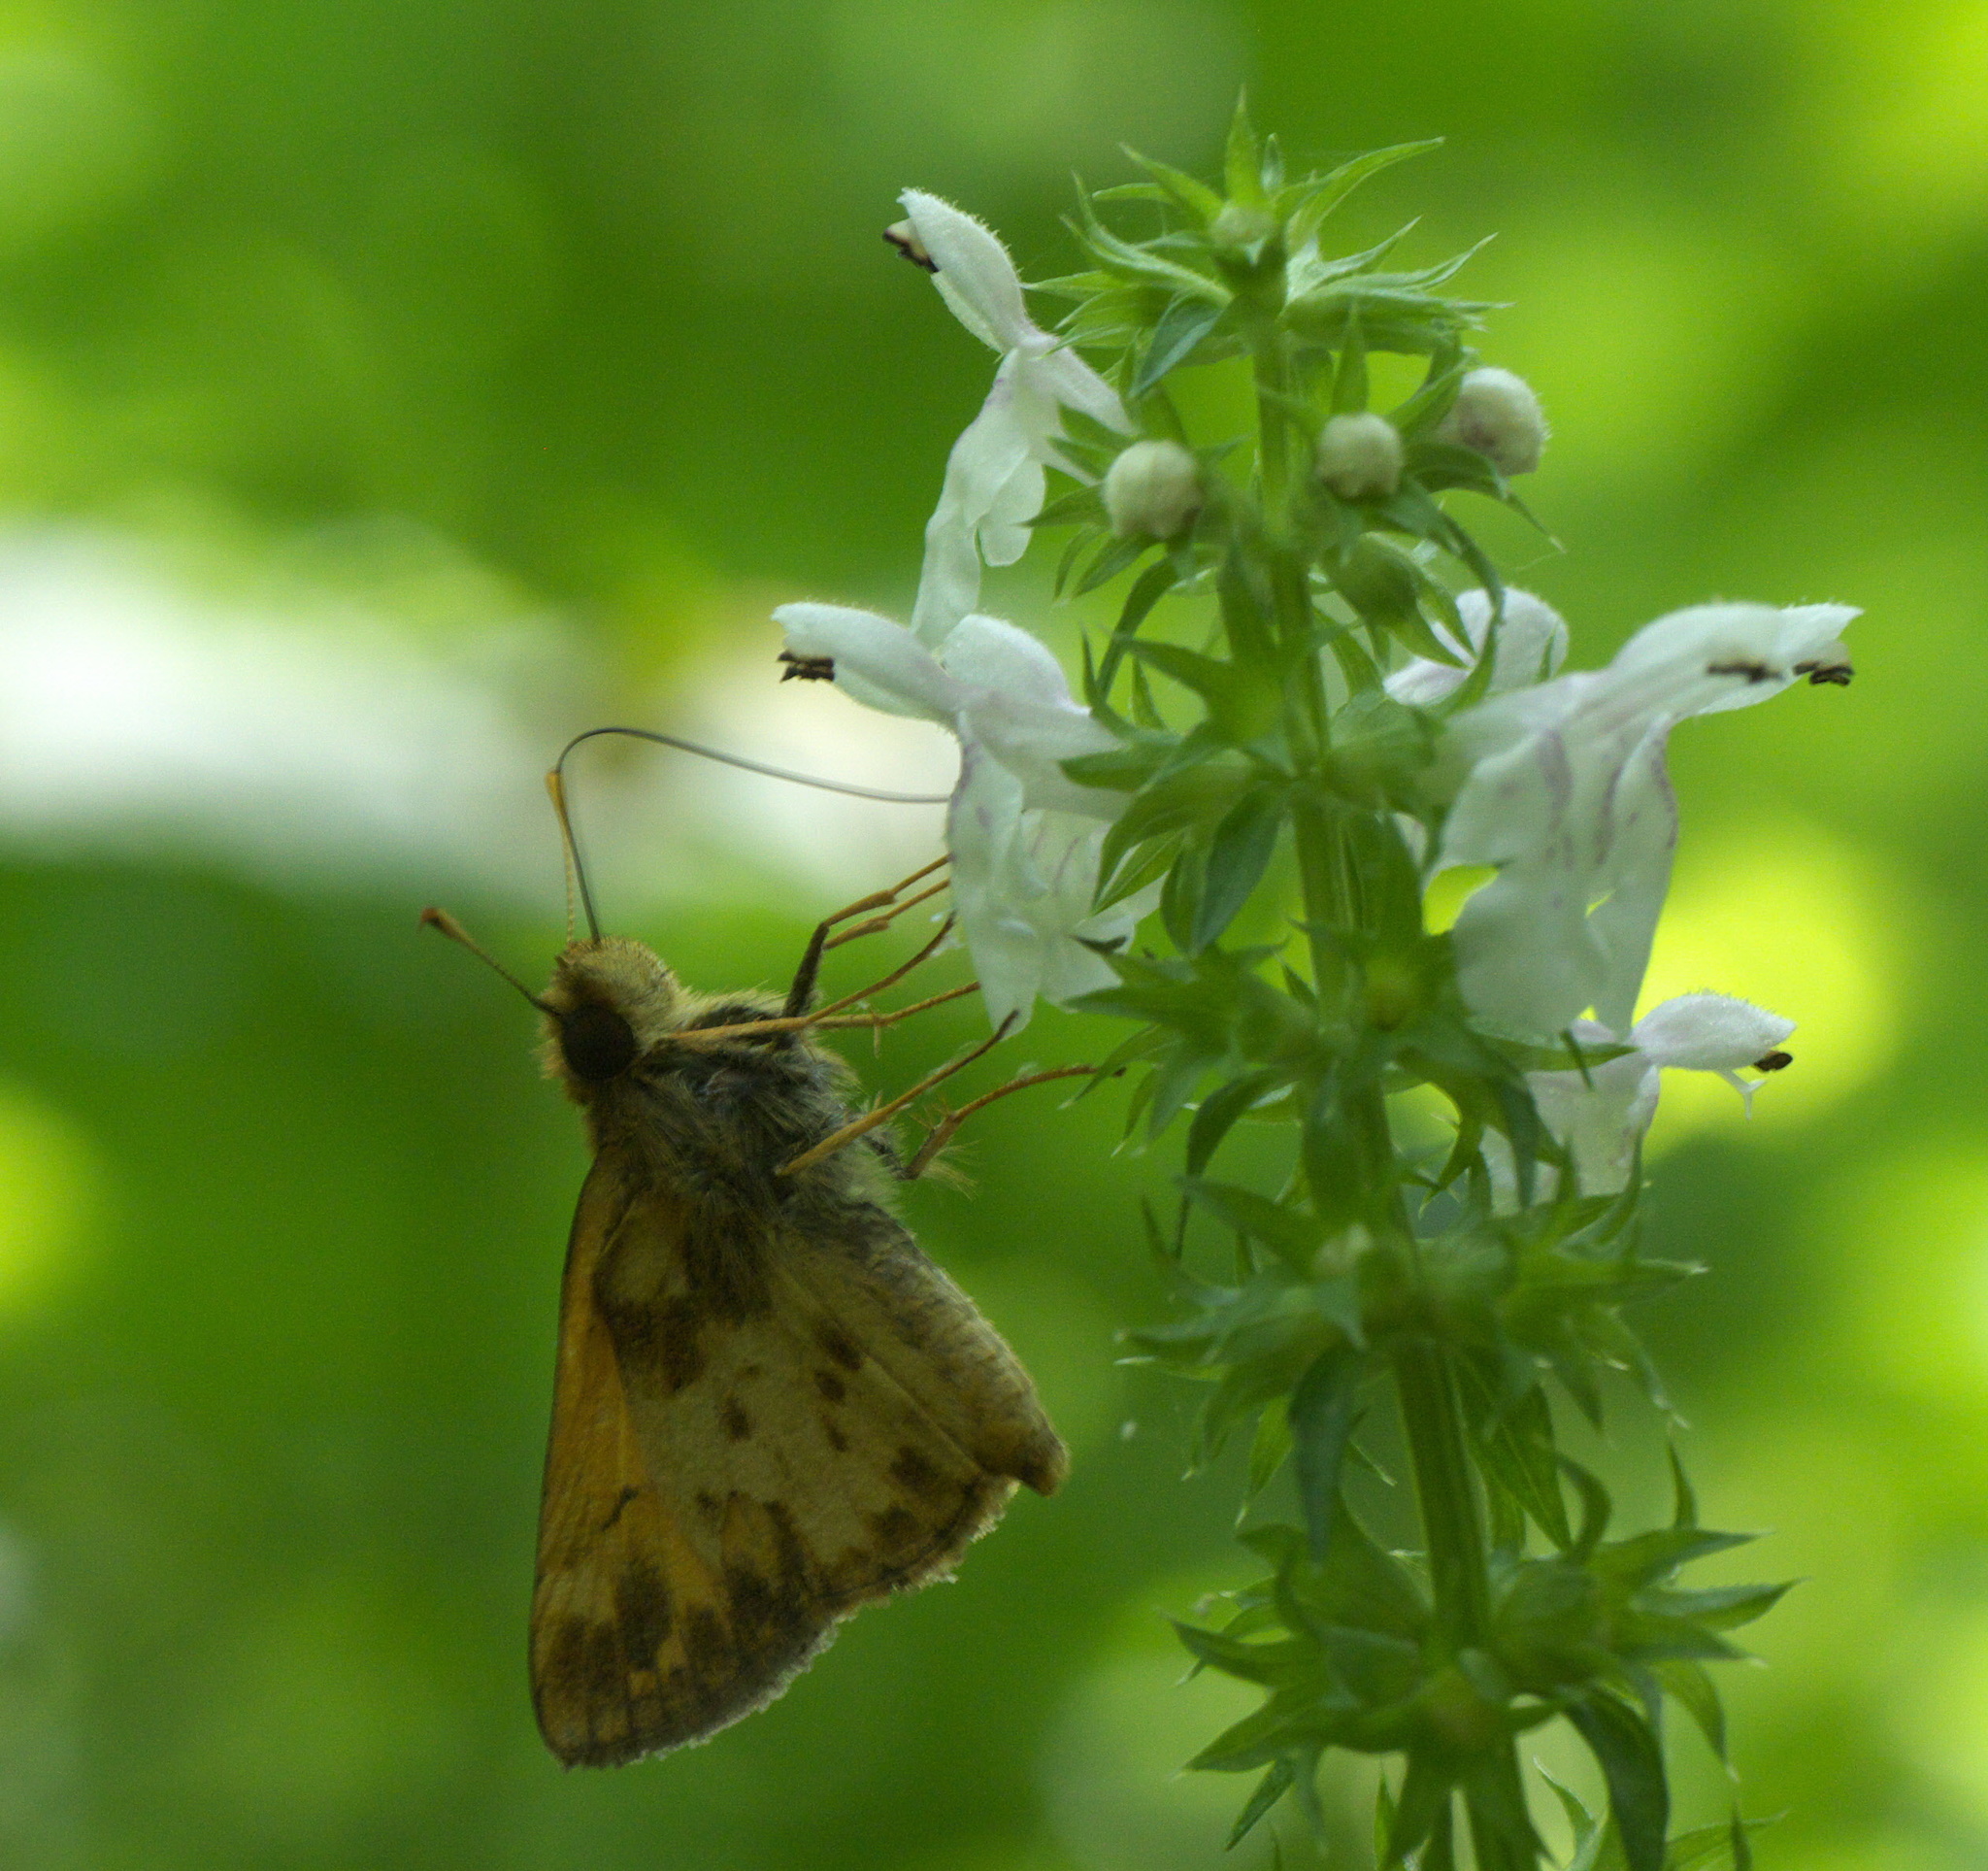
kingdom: Animalia
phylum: Arthropoda
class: Insecta
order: Lepidoptera
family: Hesperiidae
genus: Lon
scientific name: Lon zabulon
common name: Zabulon skipper
